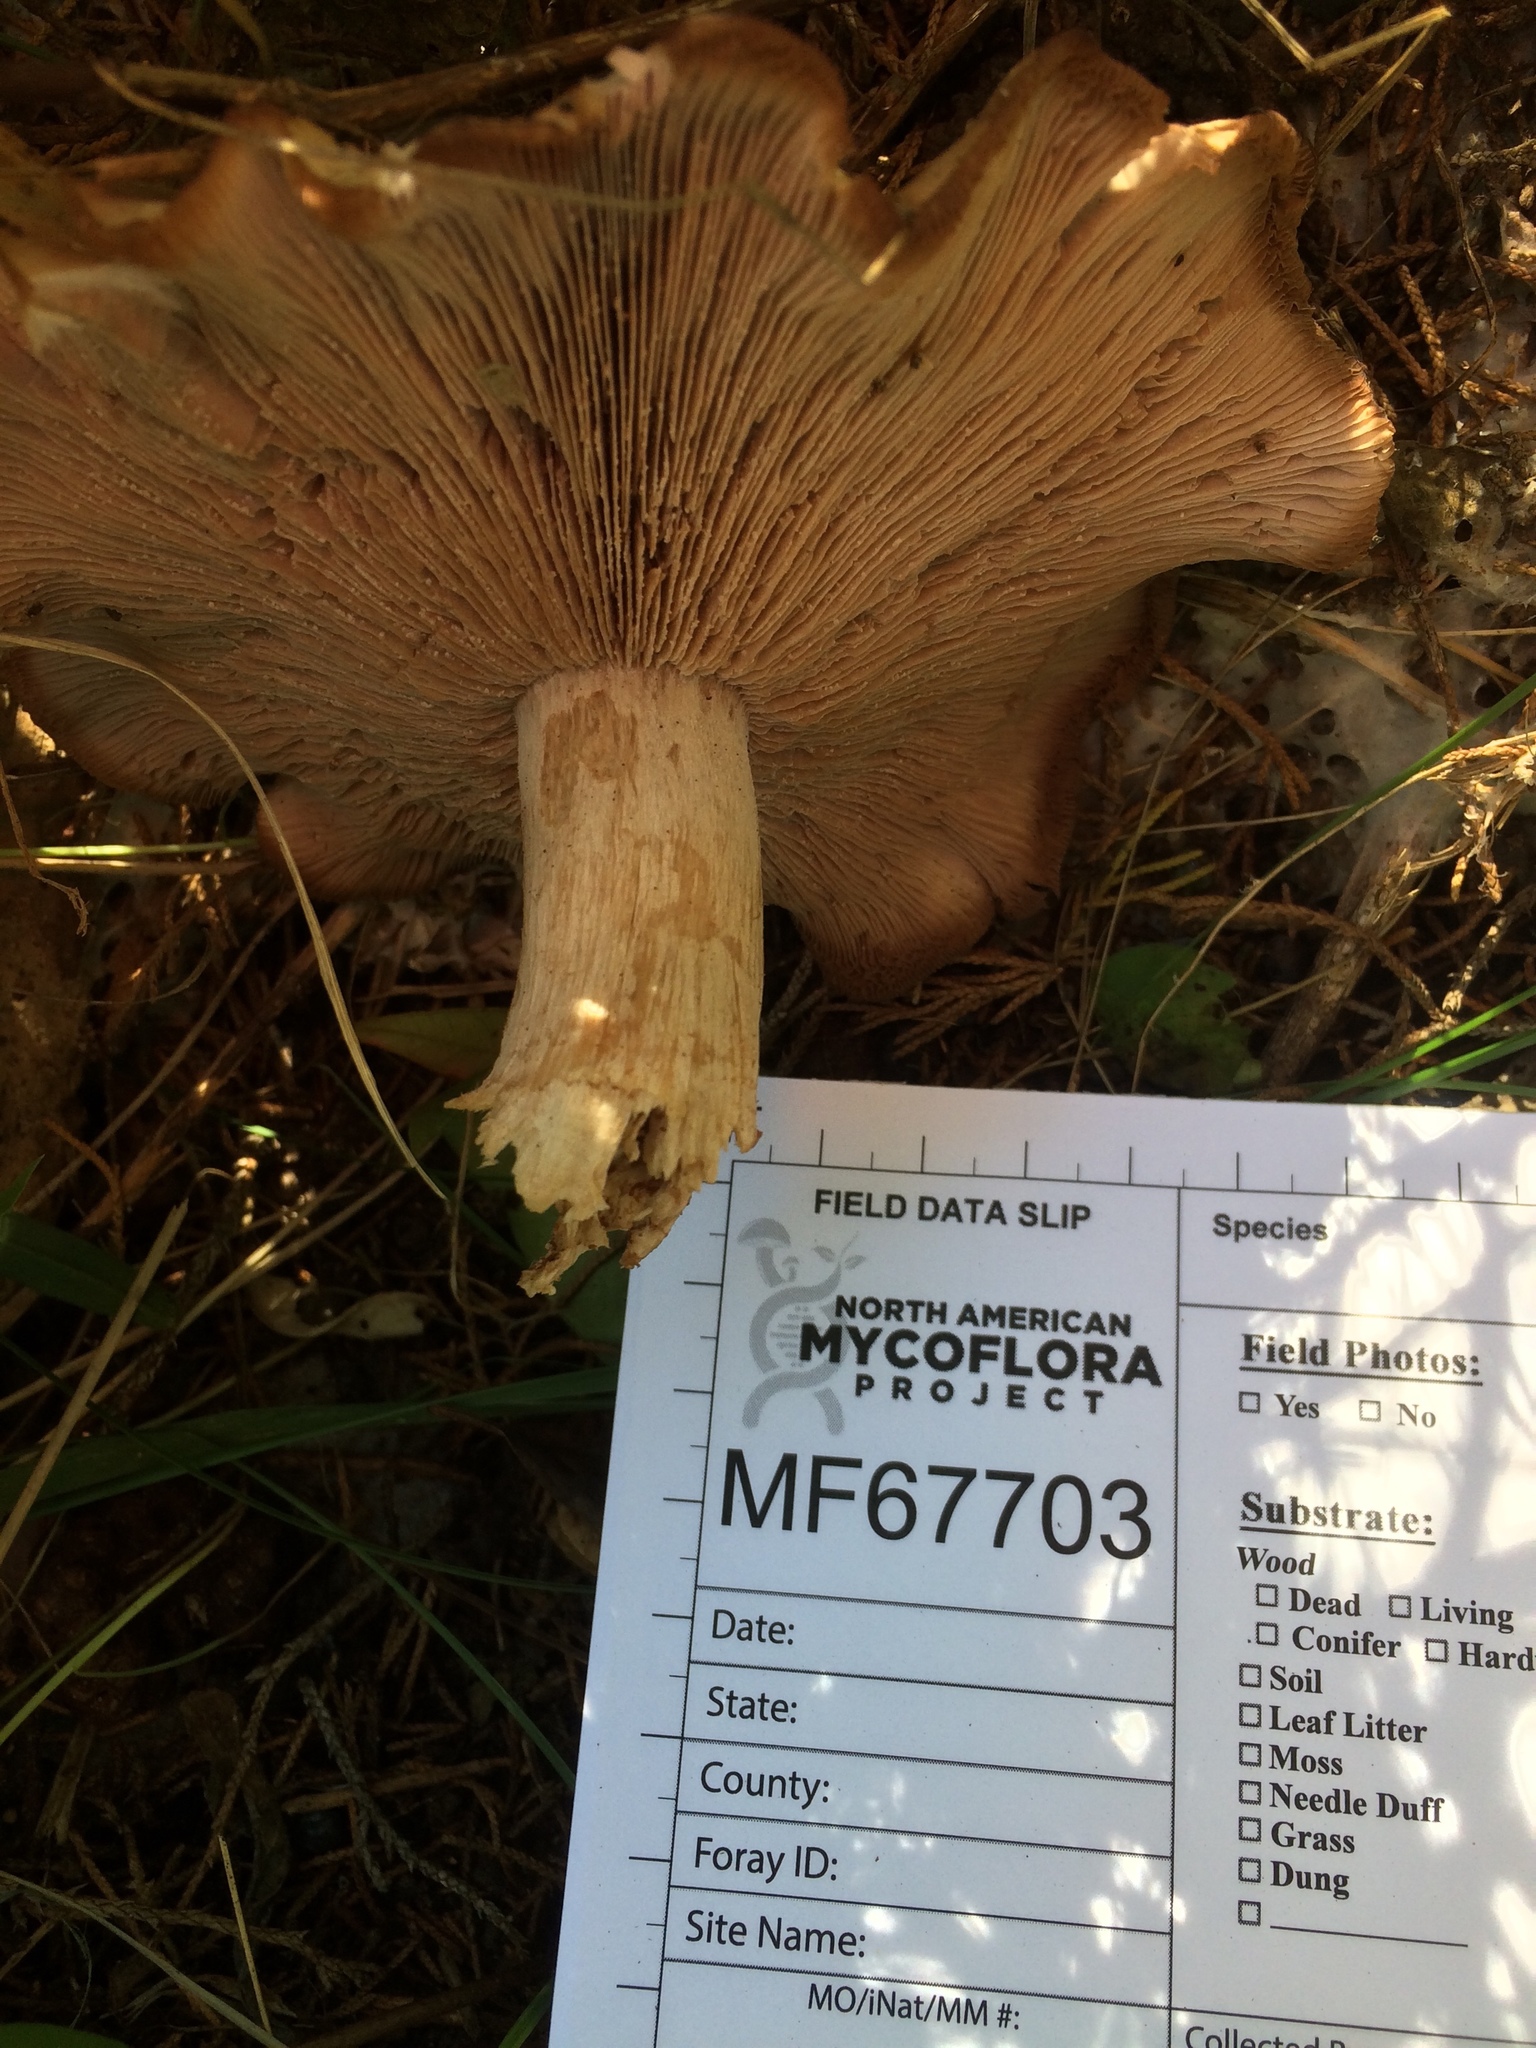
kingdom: Fungi
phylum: Basidiomycota
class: Agaricomycetes
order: Agaricales
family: Omphalotaceae
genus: Collybiopsis
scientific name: Collybiopsis peronata
